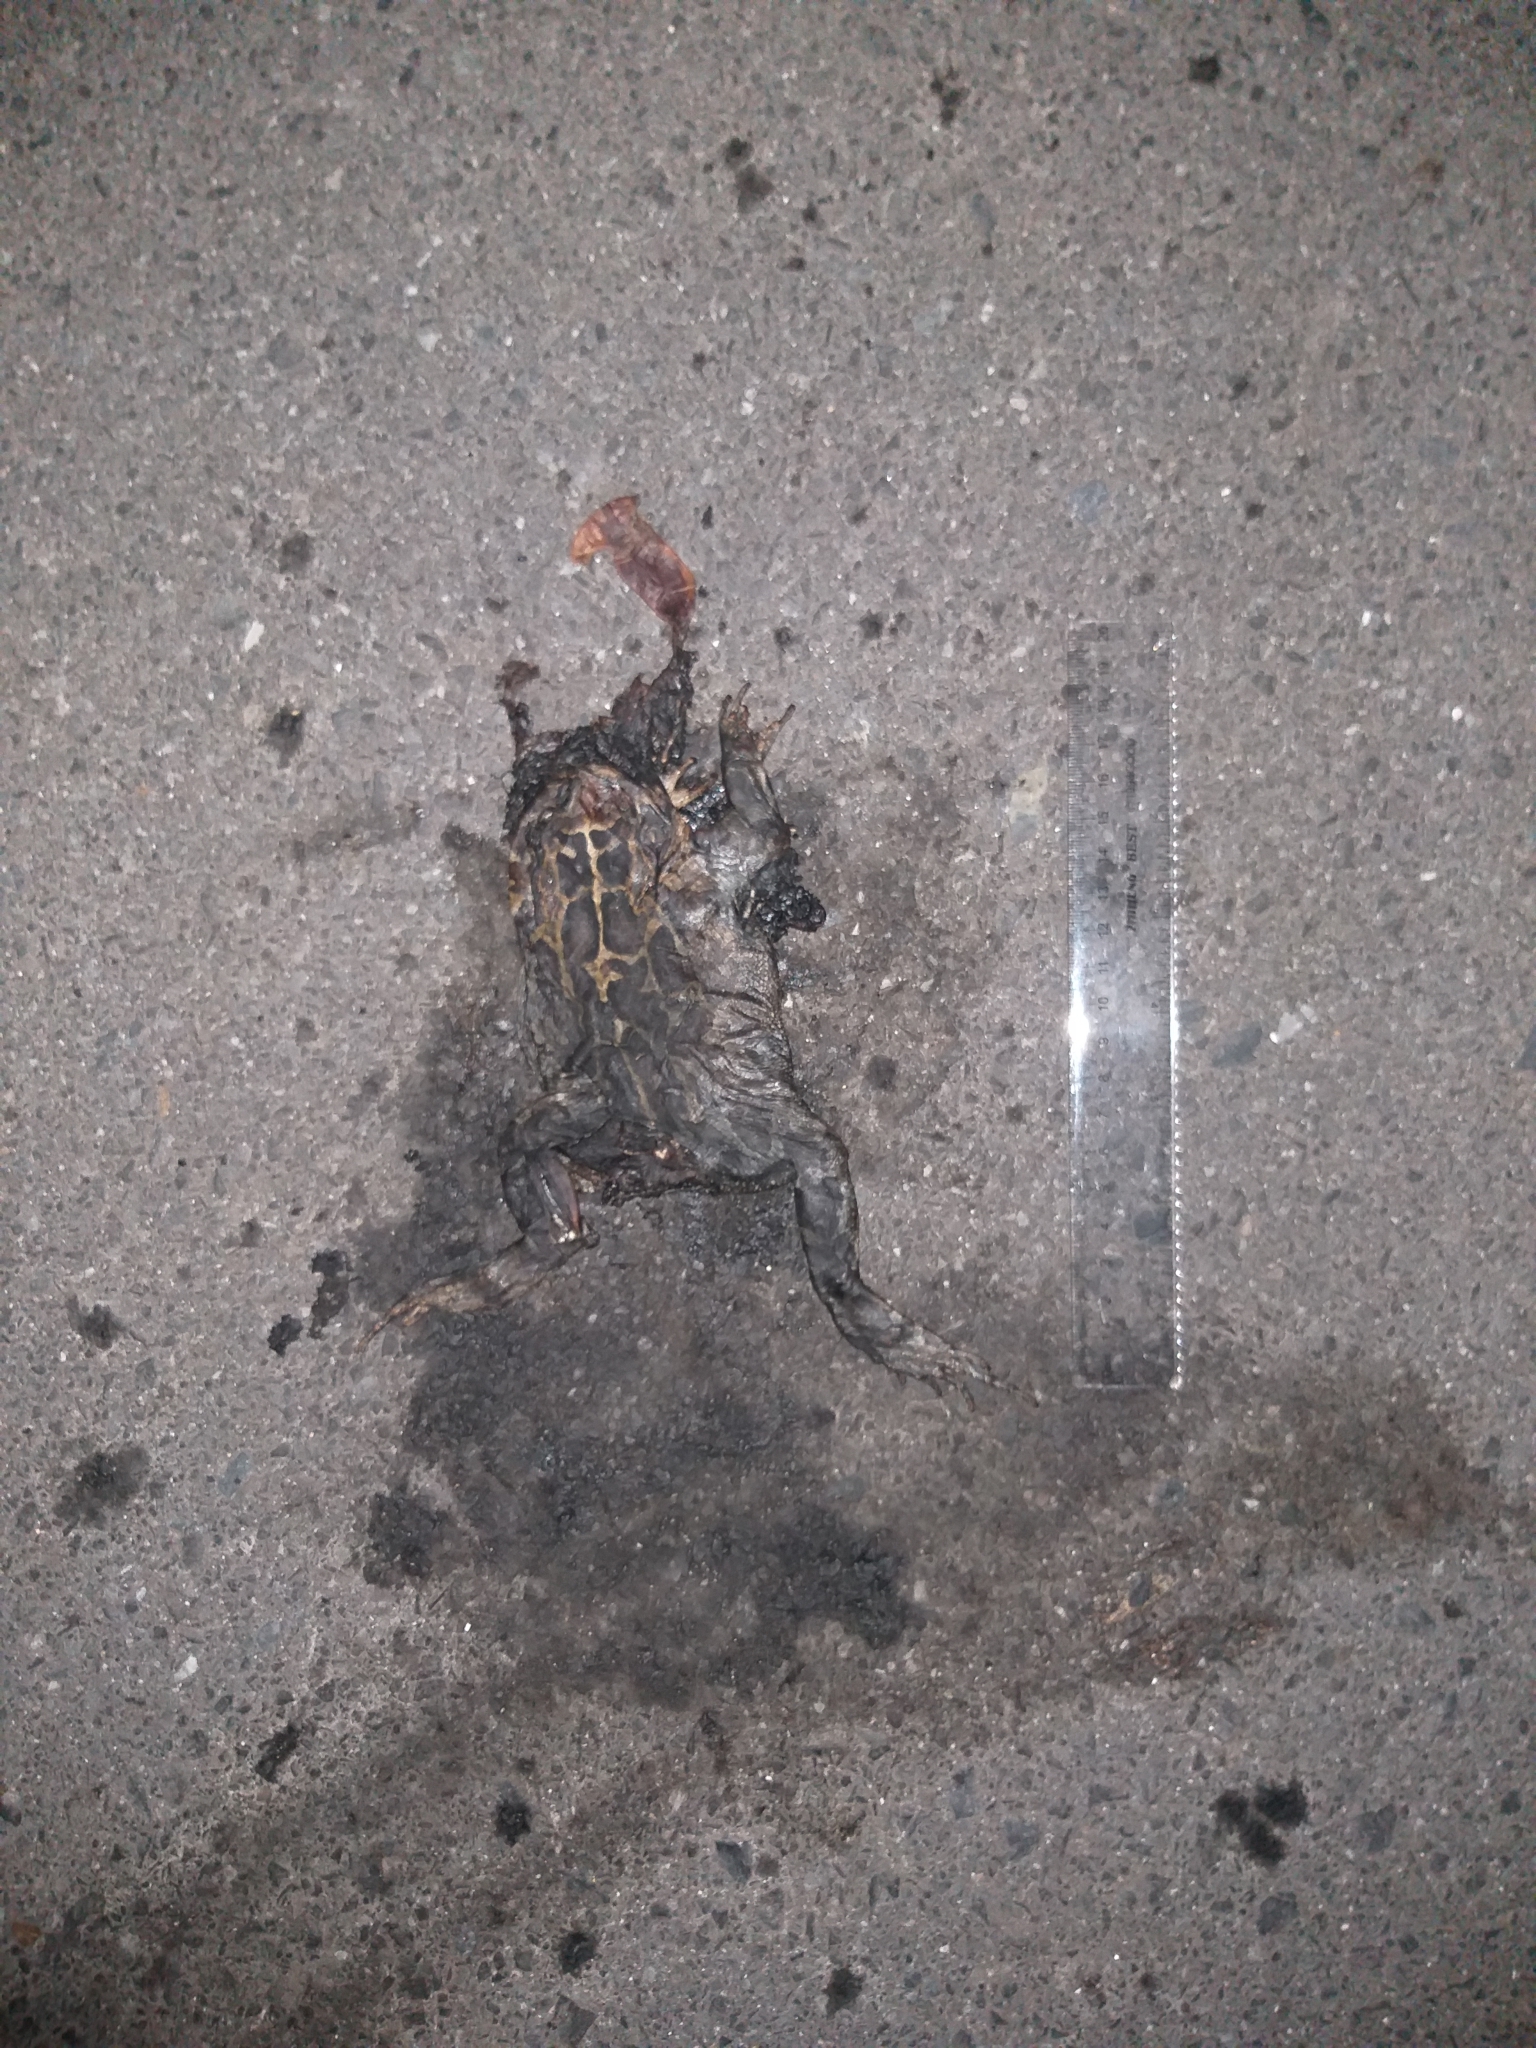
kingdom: Animalia
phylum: Chordata
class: Amphibia
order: Anura
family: Bufonidae
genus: Sclerophrys
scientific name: Sclerophrys pantherina
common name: Panther toad
